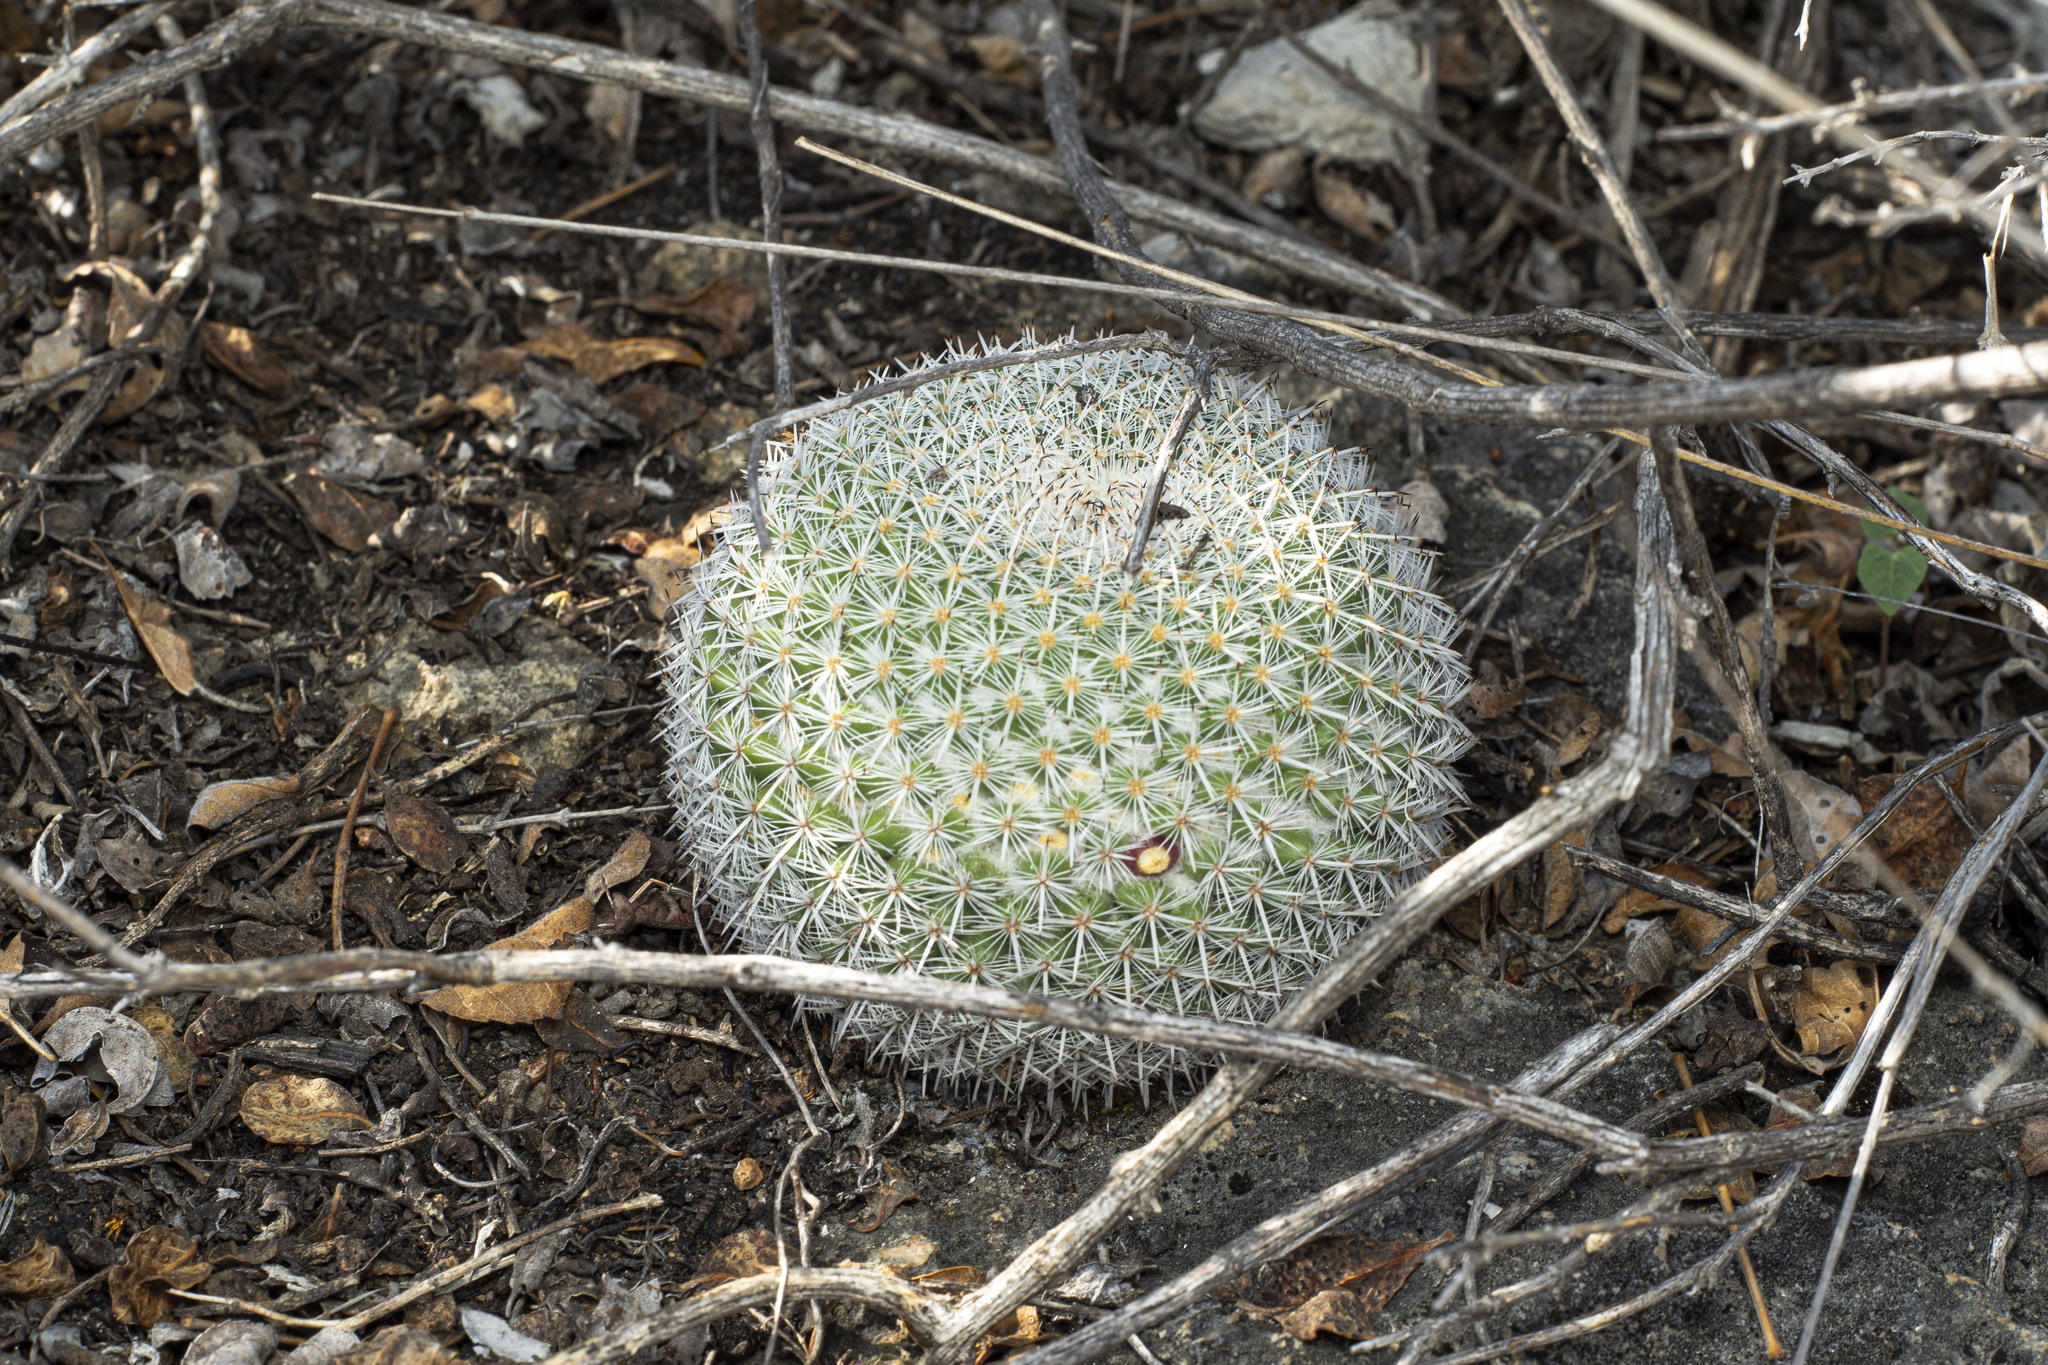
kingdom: Plantae
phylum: Tracheophyta
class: Magnoliopsida
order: Caryophyllales
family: Cactaceae
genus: Mammillaria
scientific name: Mammillaria albilanata
